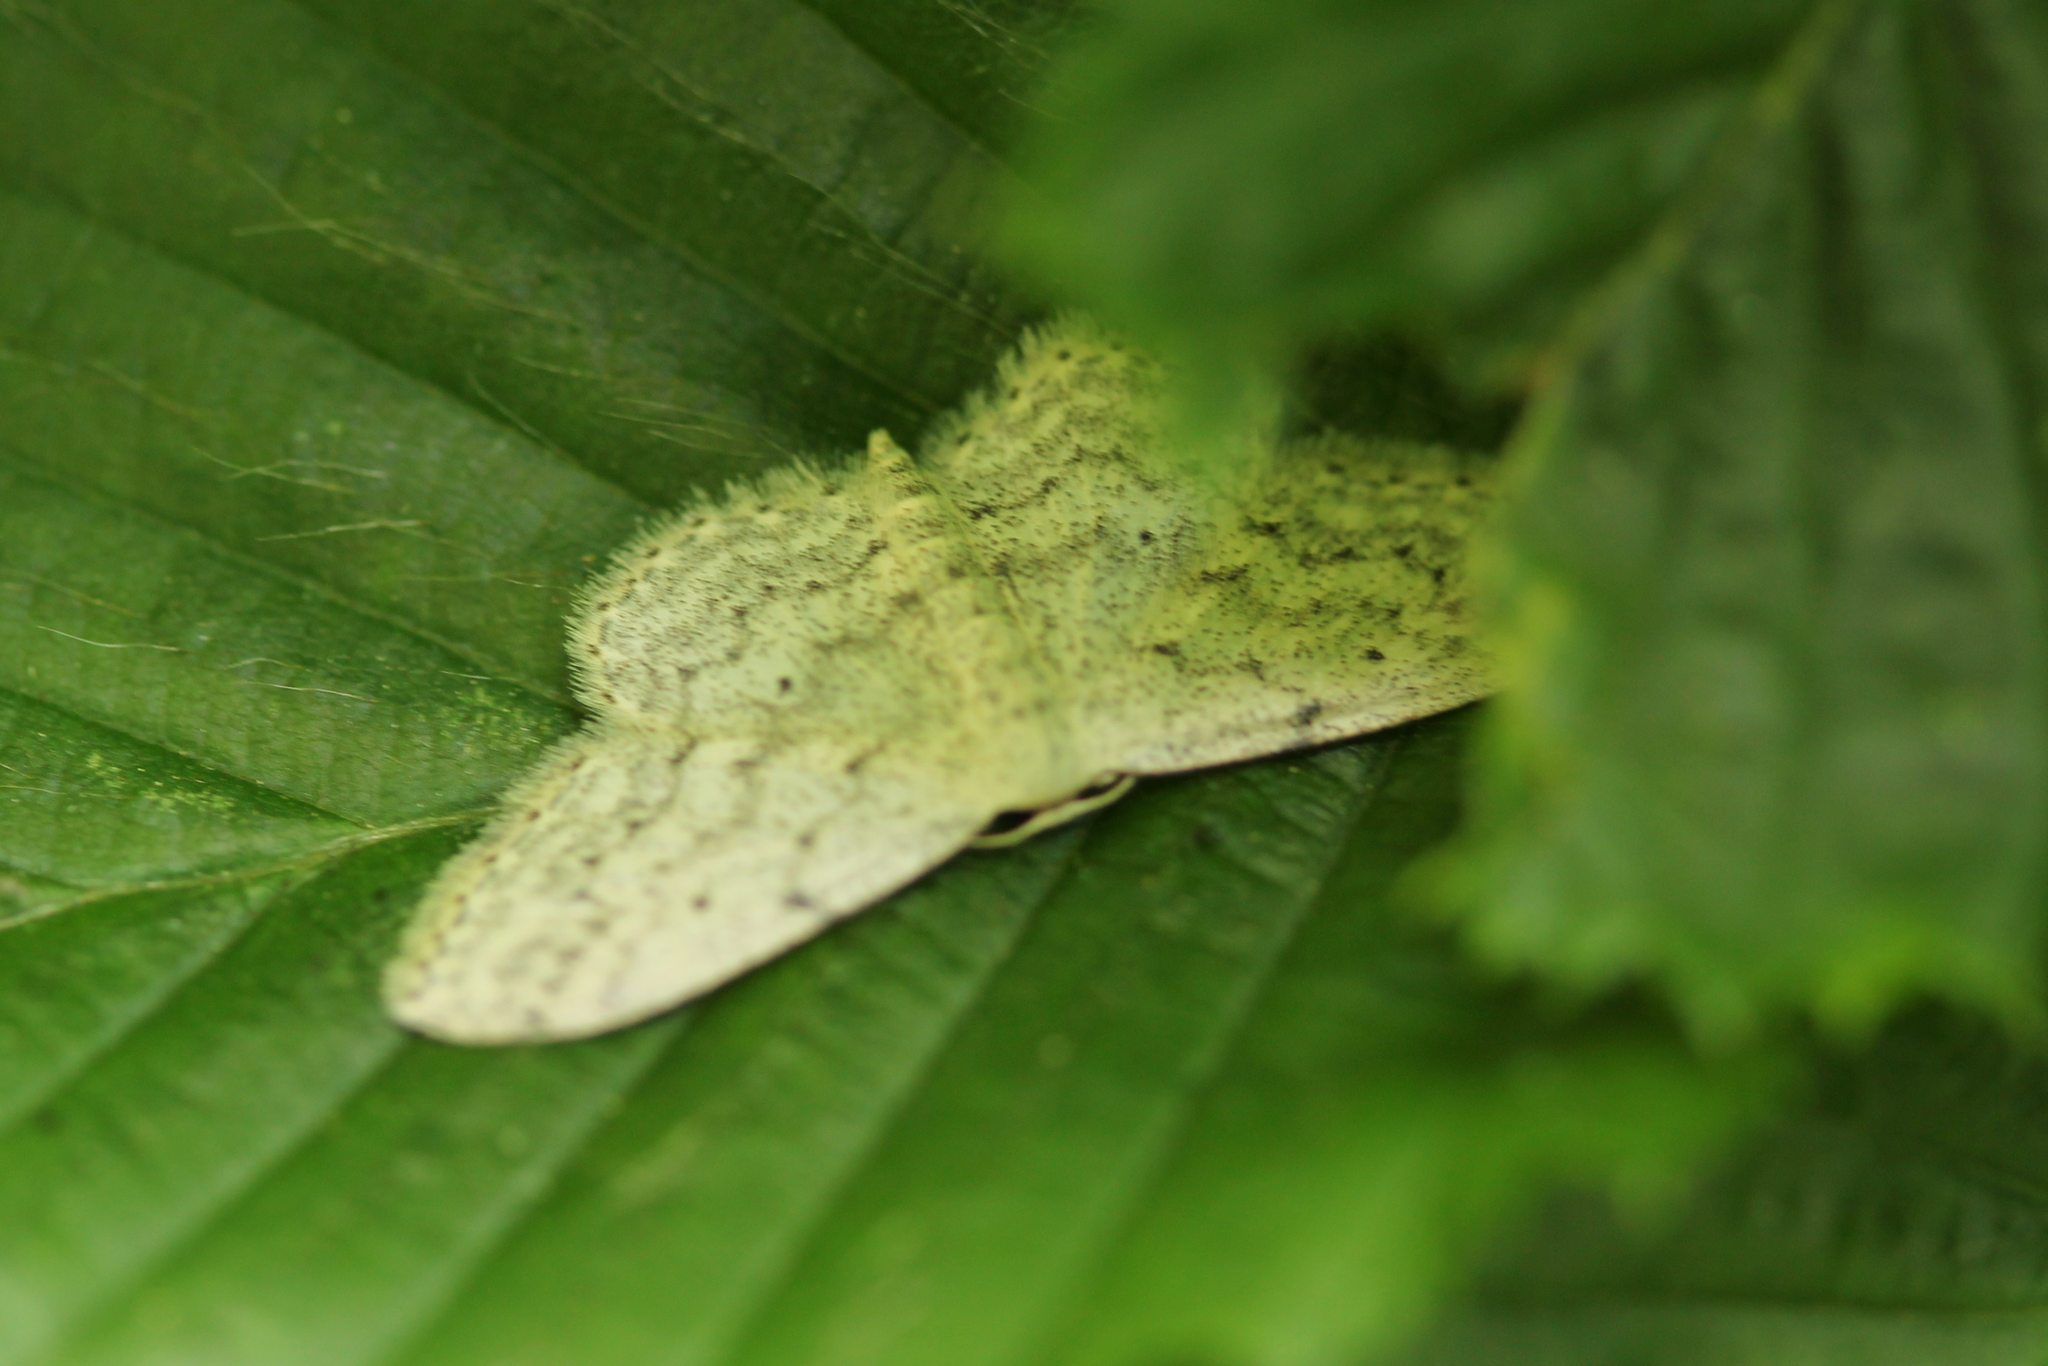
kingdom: Animalia
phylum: Arthropoda
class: Insecta
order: Lepidoptera
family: Geometridae
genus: Idaea
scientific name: Idaea seriata
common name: Small dusty wave
